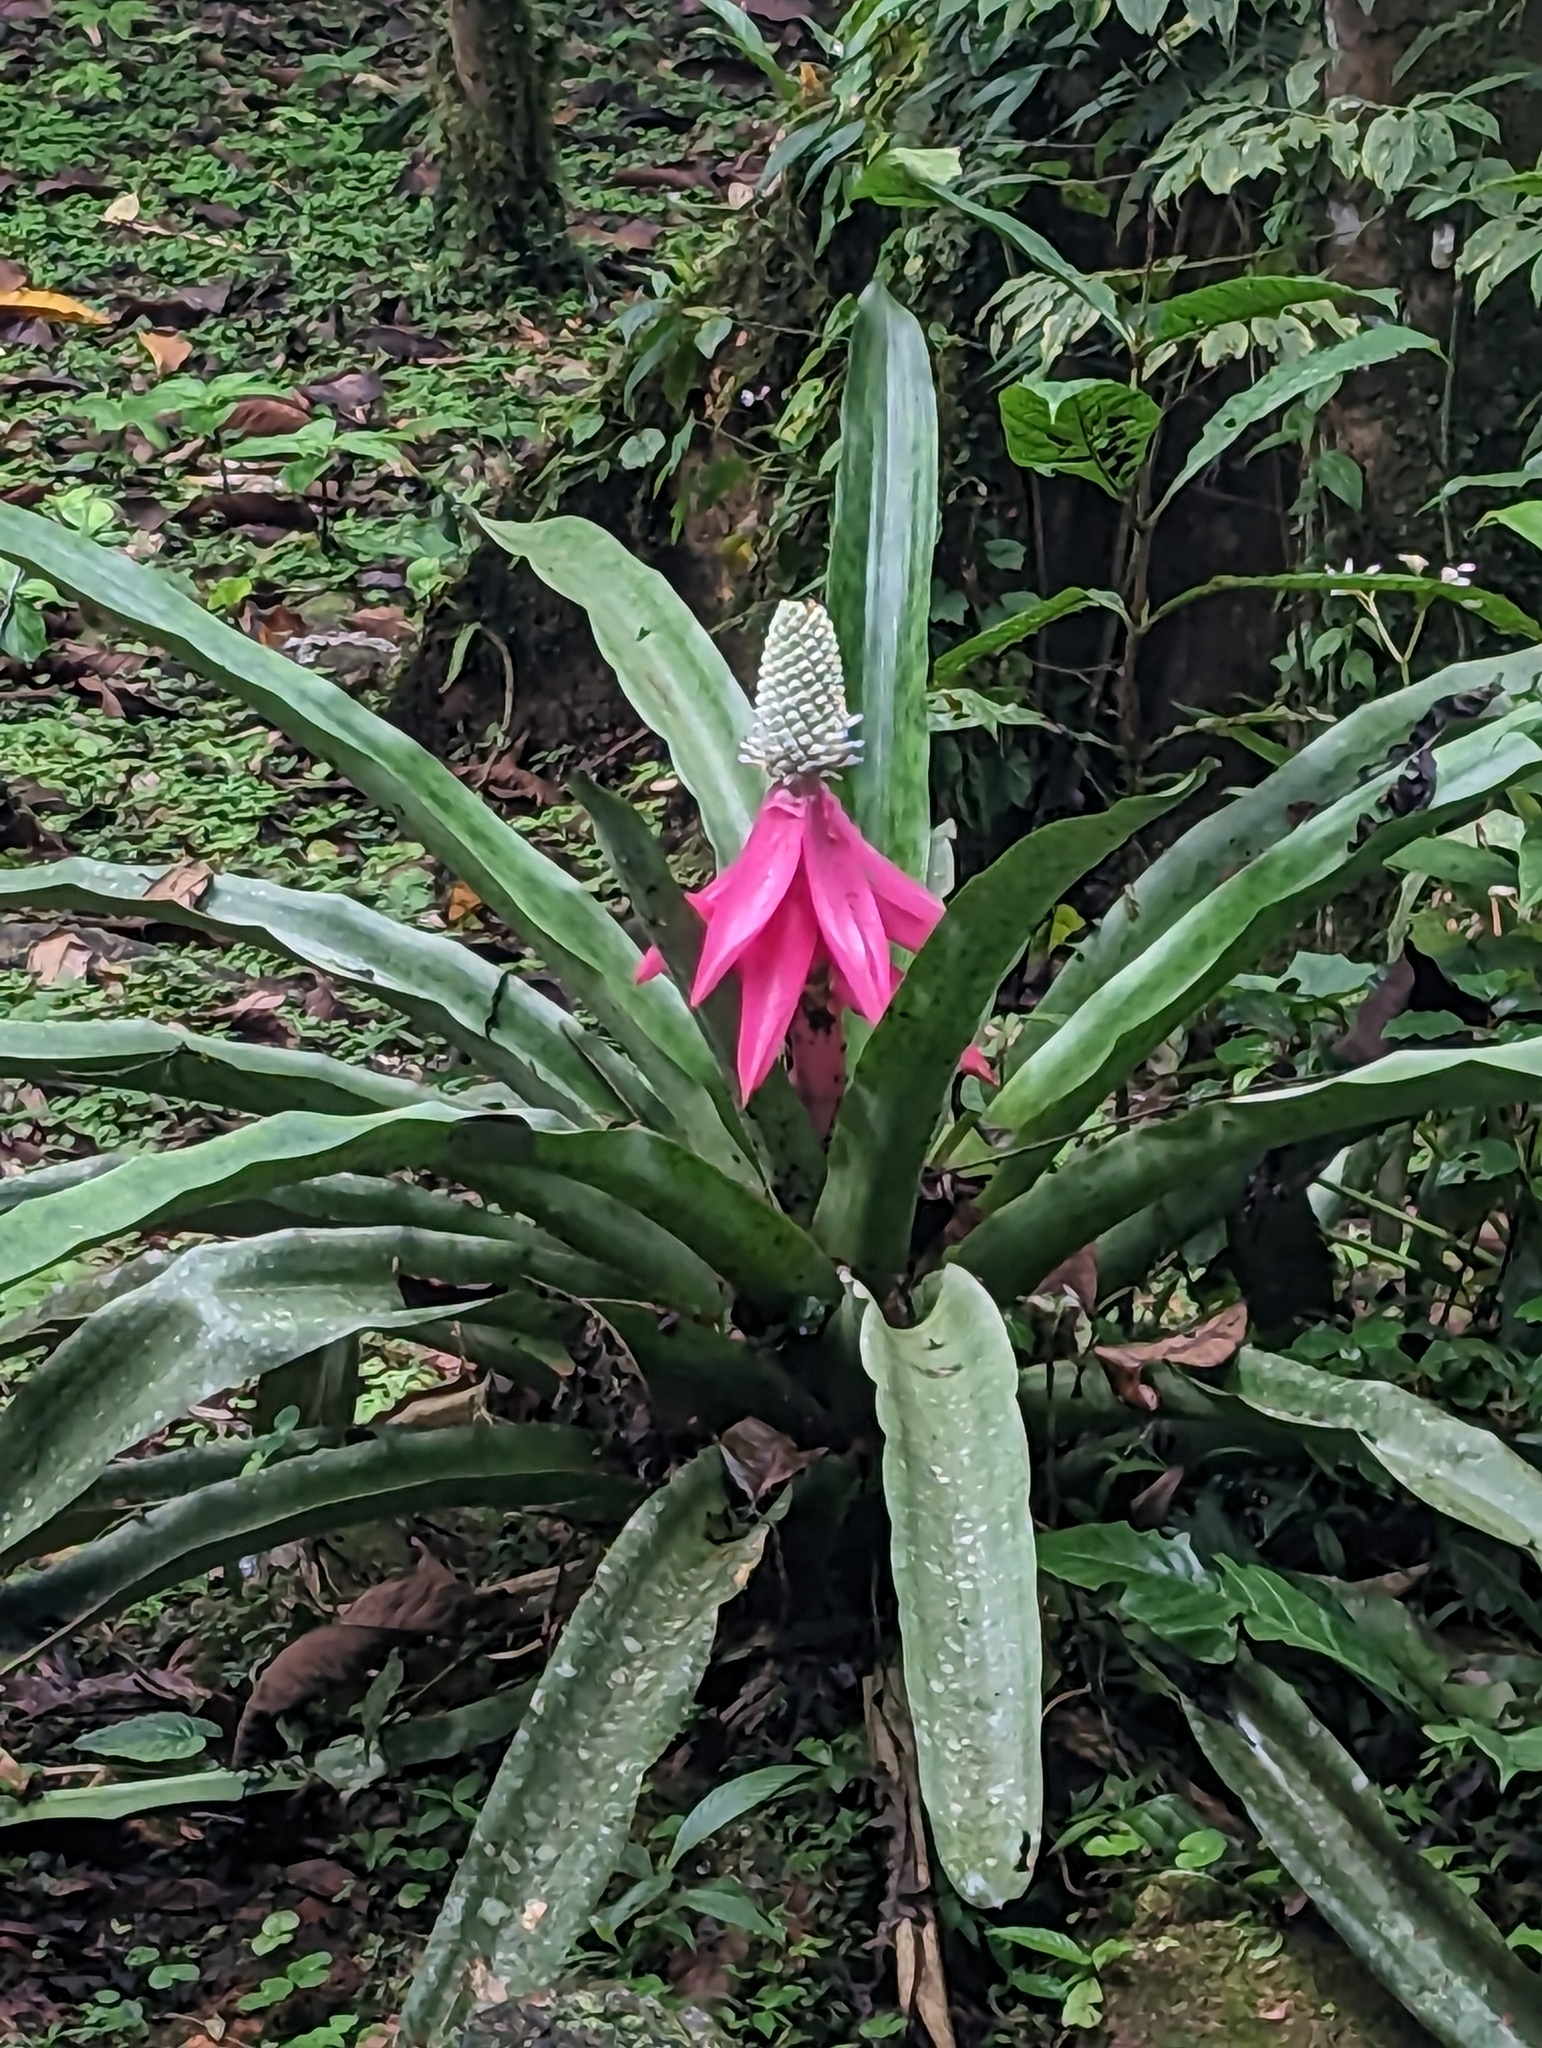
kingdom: Plantae
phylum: Tracheophyta
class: Liliopsida
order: Poales
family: Bromeliaceae
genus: Aechmea
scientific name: Aechmea mariae-reginae
